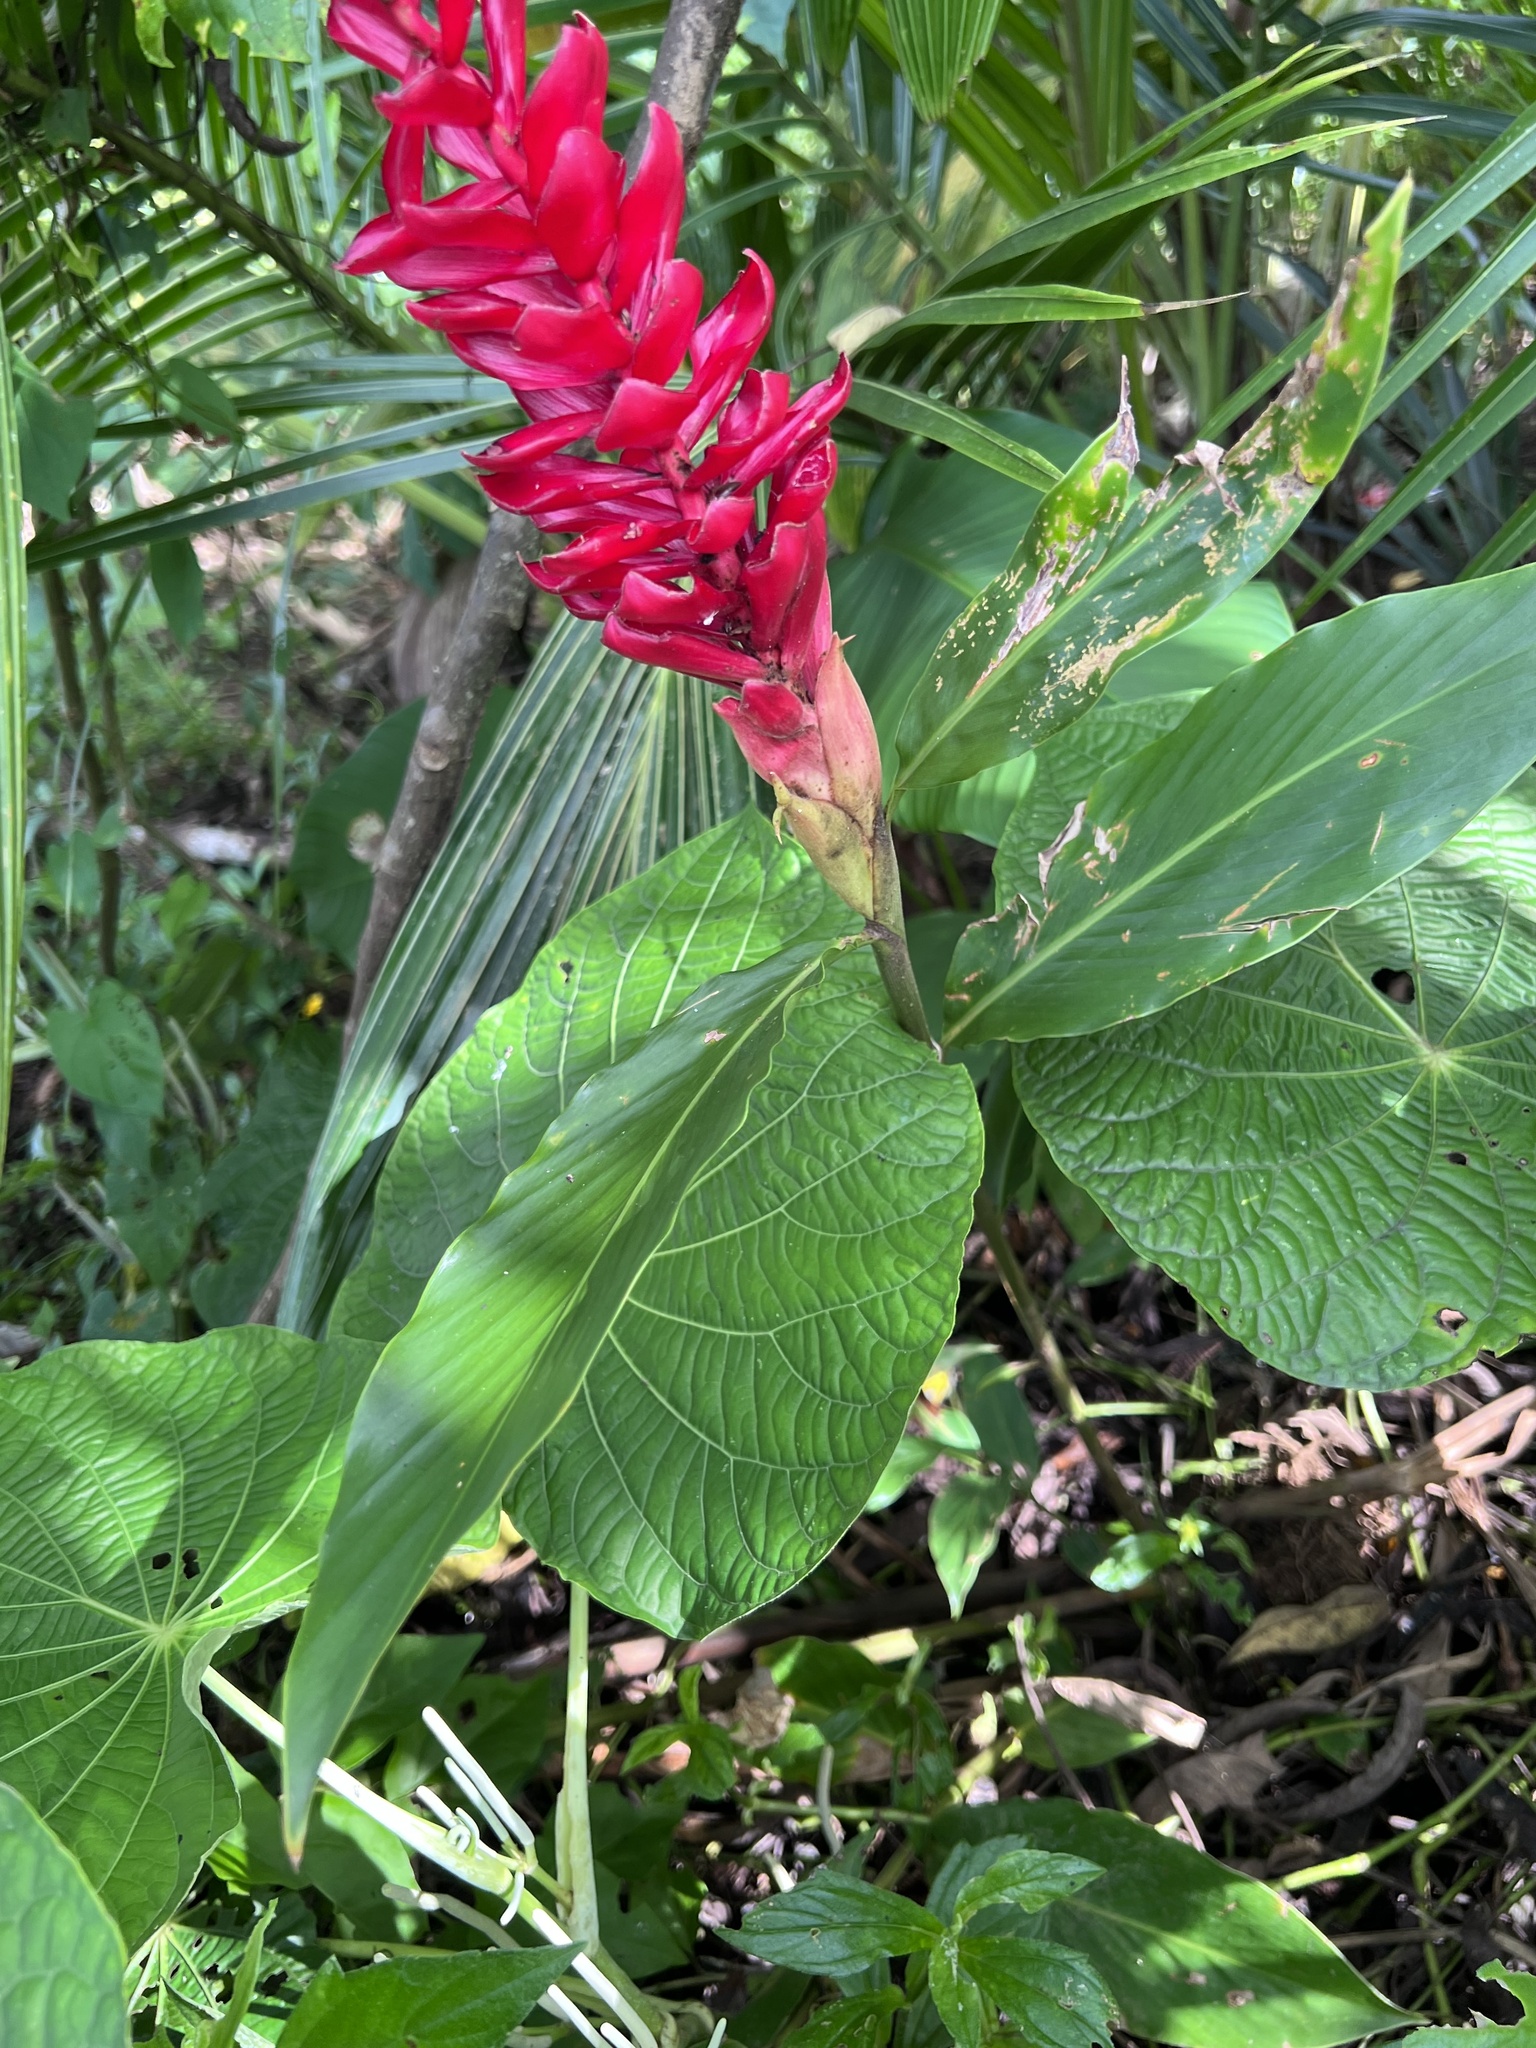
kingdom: Plantae
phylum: Tracheophyta
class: Liliopsida
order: Zingiberales
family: Zingiberaceae
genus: Alpinia
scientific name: Alpinia purpurata
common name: Red ginger
